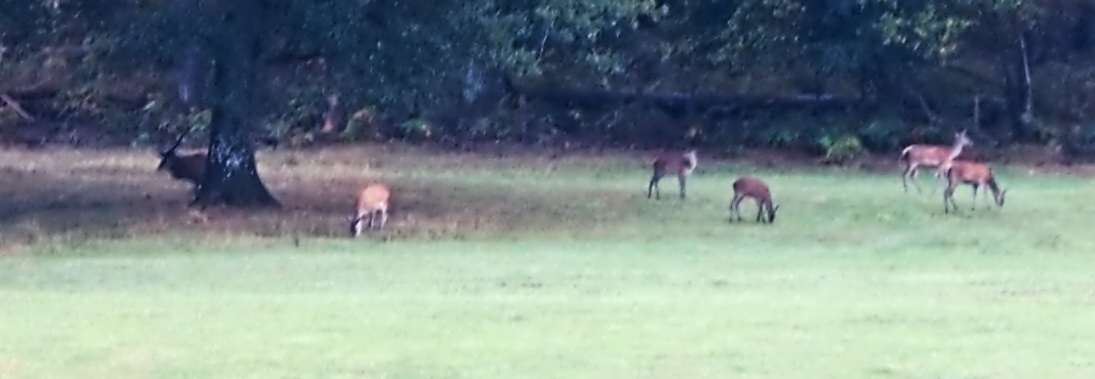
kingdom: Animalia
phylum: Chordata
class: Mammalia
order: Artiodactyla
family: Cervidae
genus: Cervus
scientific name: Cervus elaphus
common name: Red deer
